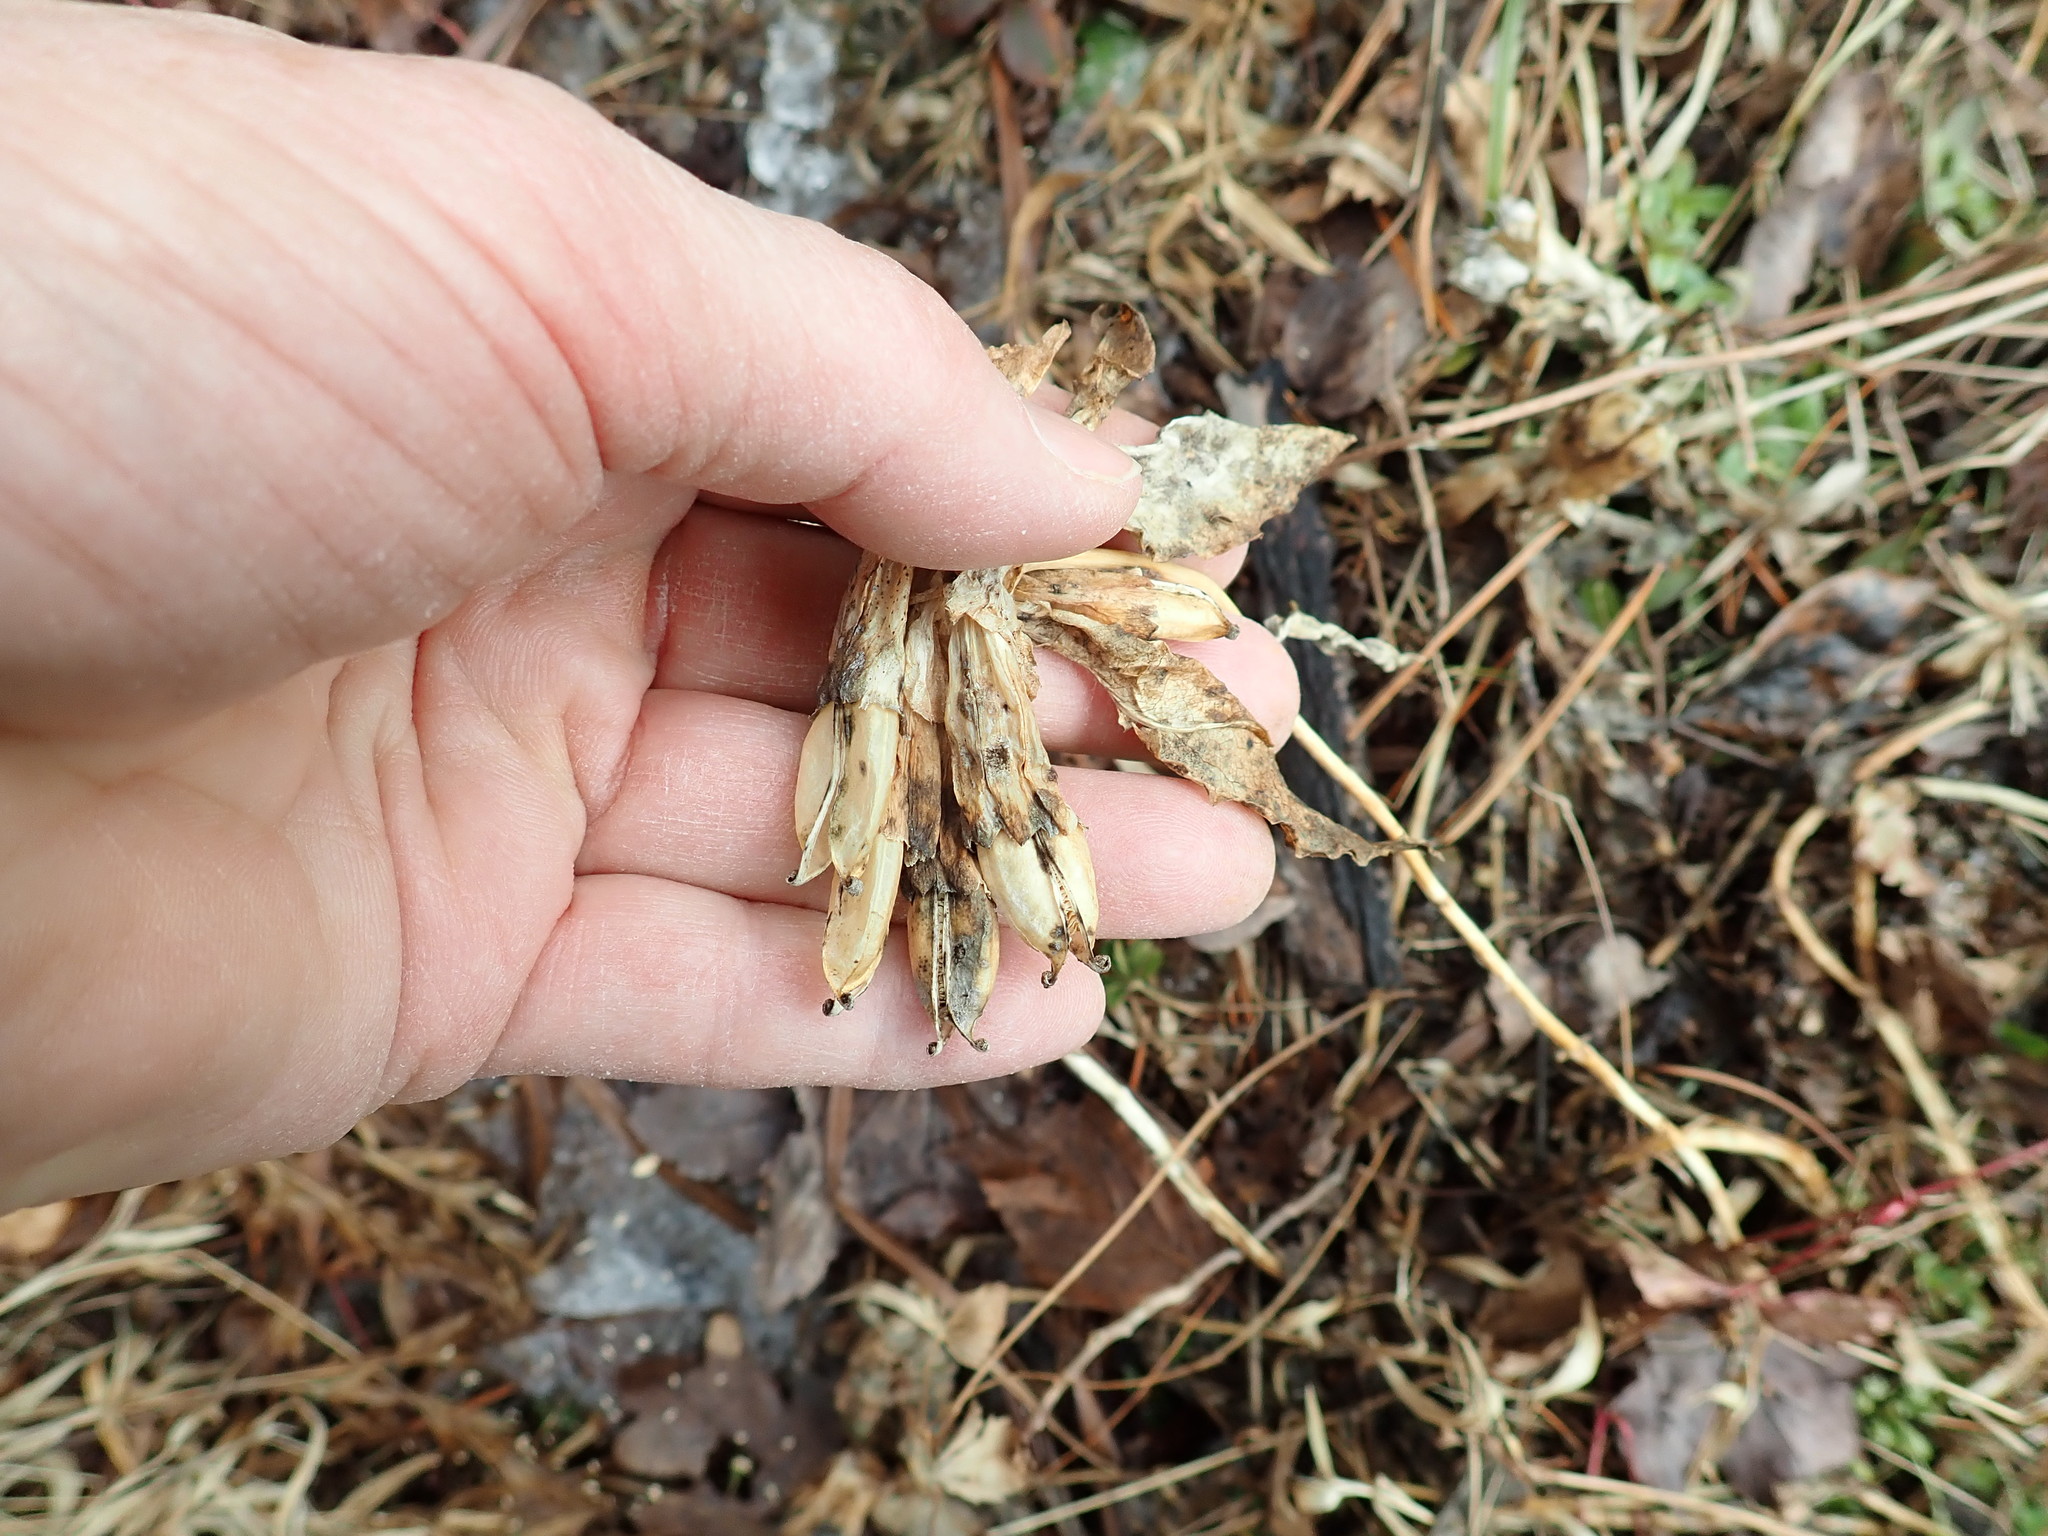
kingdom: Plantae
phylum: Tracheophyta
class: Magnoliopsida
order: Gentianales
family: Gentianaceae
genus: Gentiana
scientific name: Gentiana
